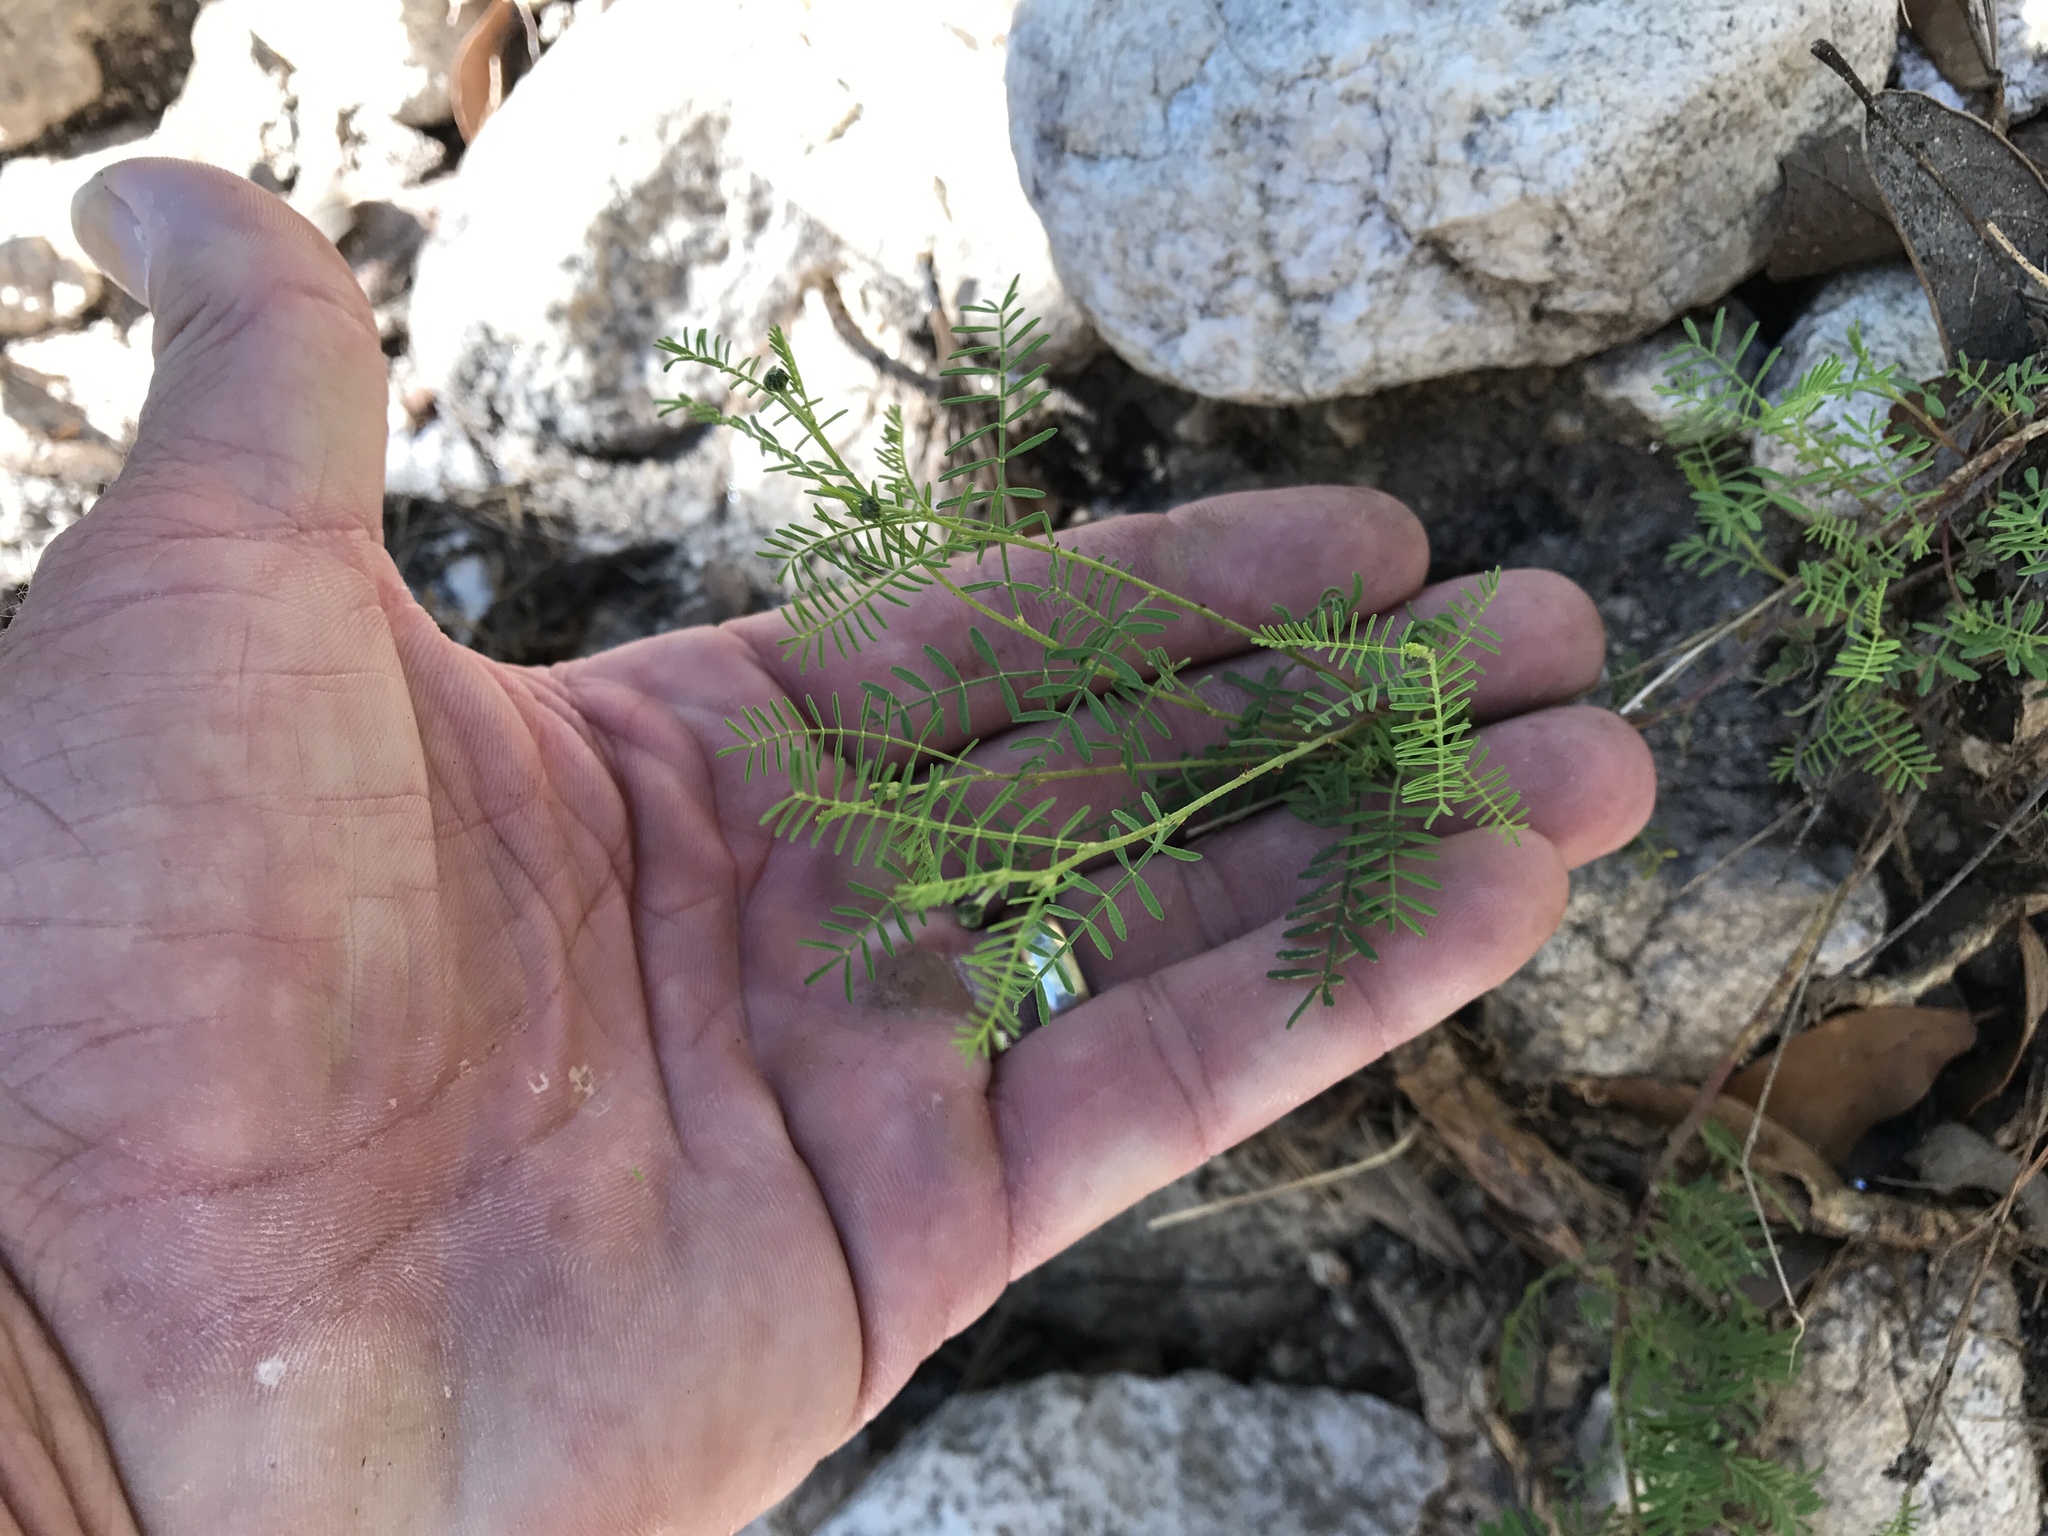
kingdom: Plantae
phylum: Tracheophyta
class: Magnoliopsida
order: Fabales
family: Fabaceae
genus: Dalea
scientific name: Dalea lumholtzii
